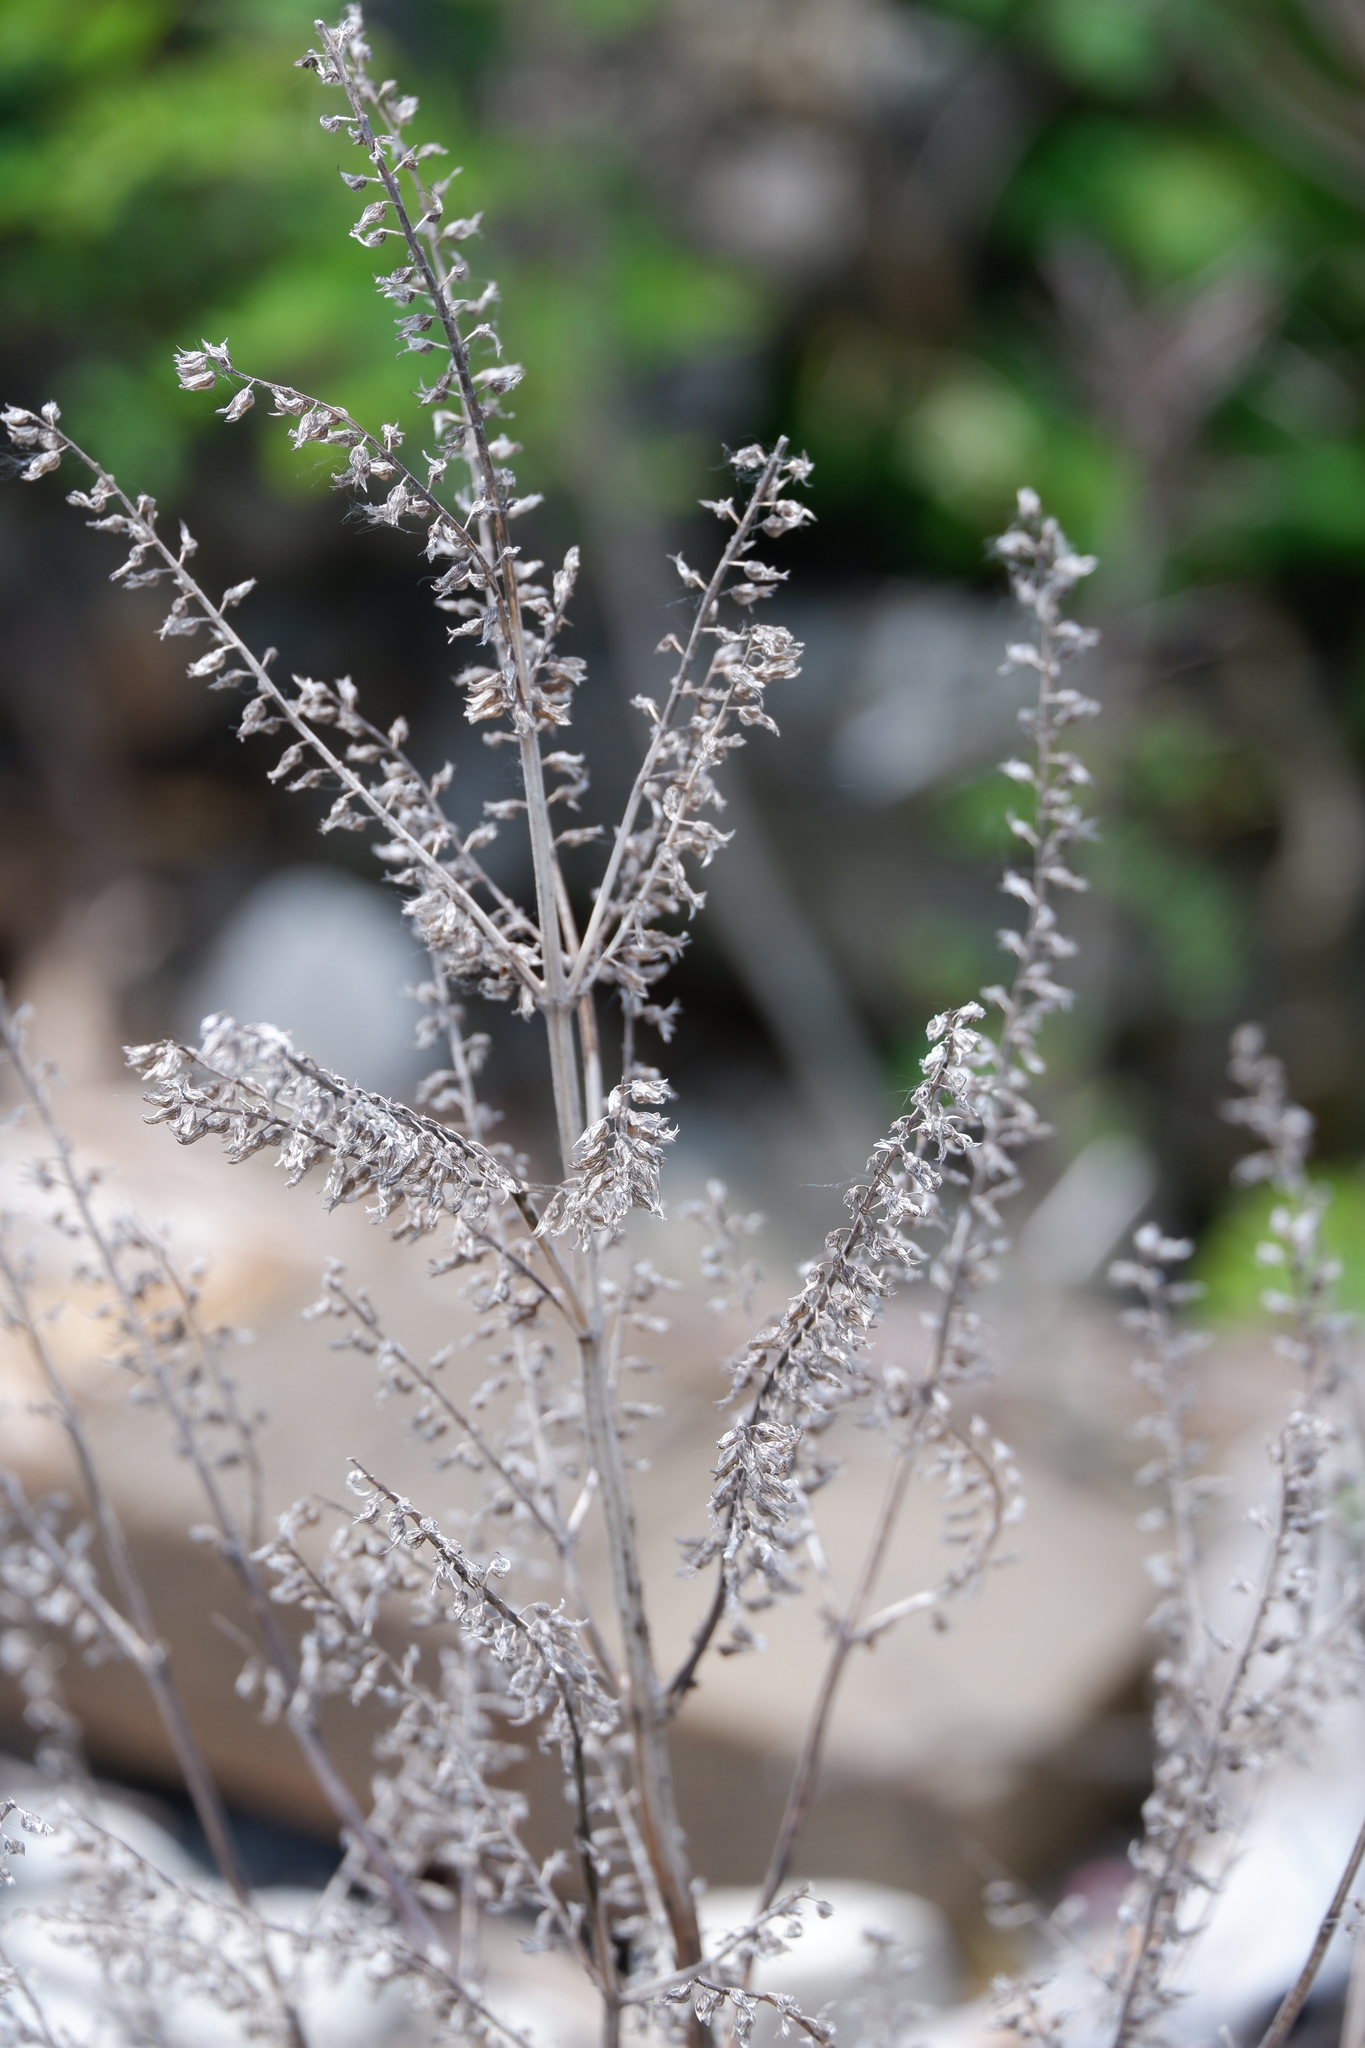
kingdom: Plantae
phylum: Tracheophyta
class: Magnoliopsida
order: Lamiales
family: Lamiaceae
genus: Perilla
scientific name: Perilla frutescens
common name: Perilla
